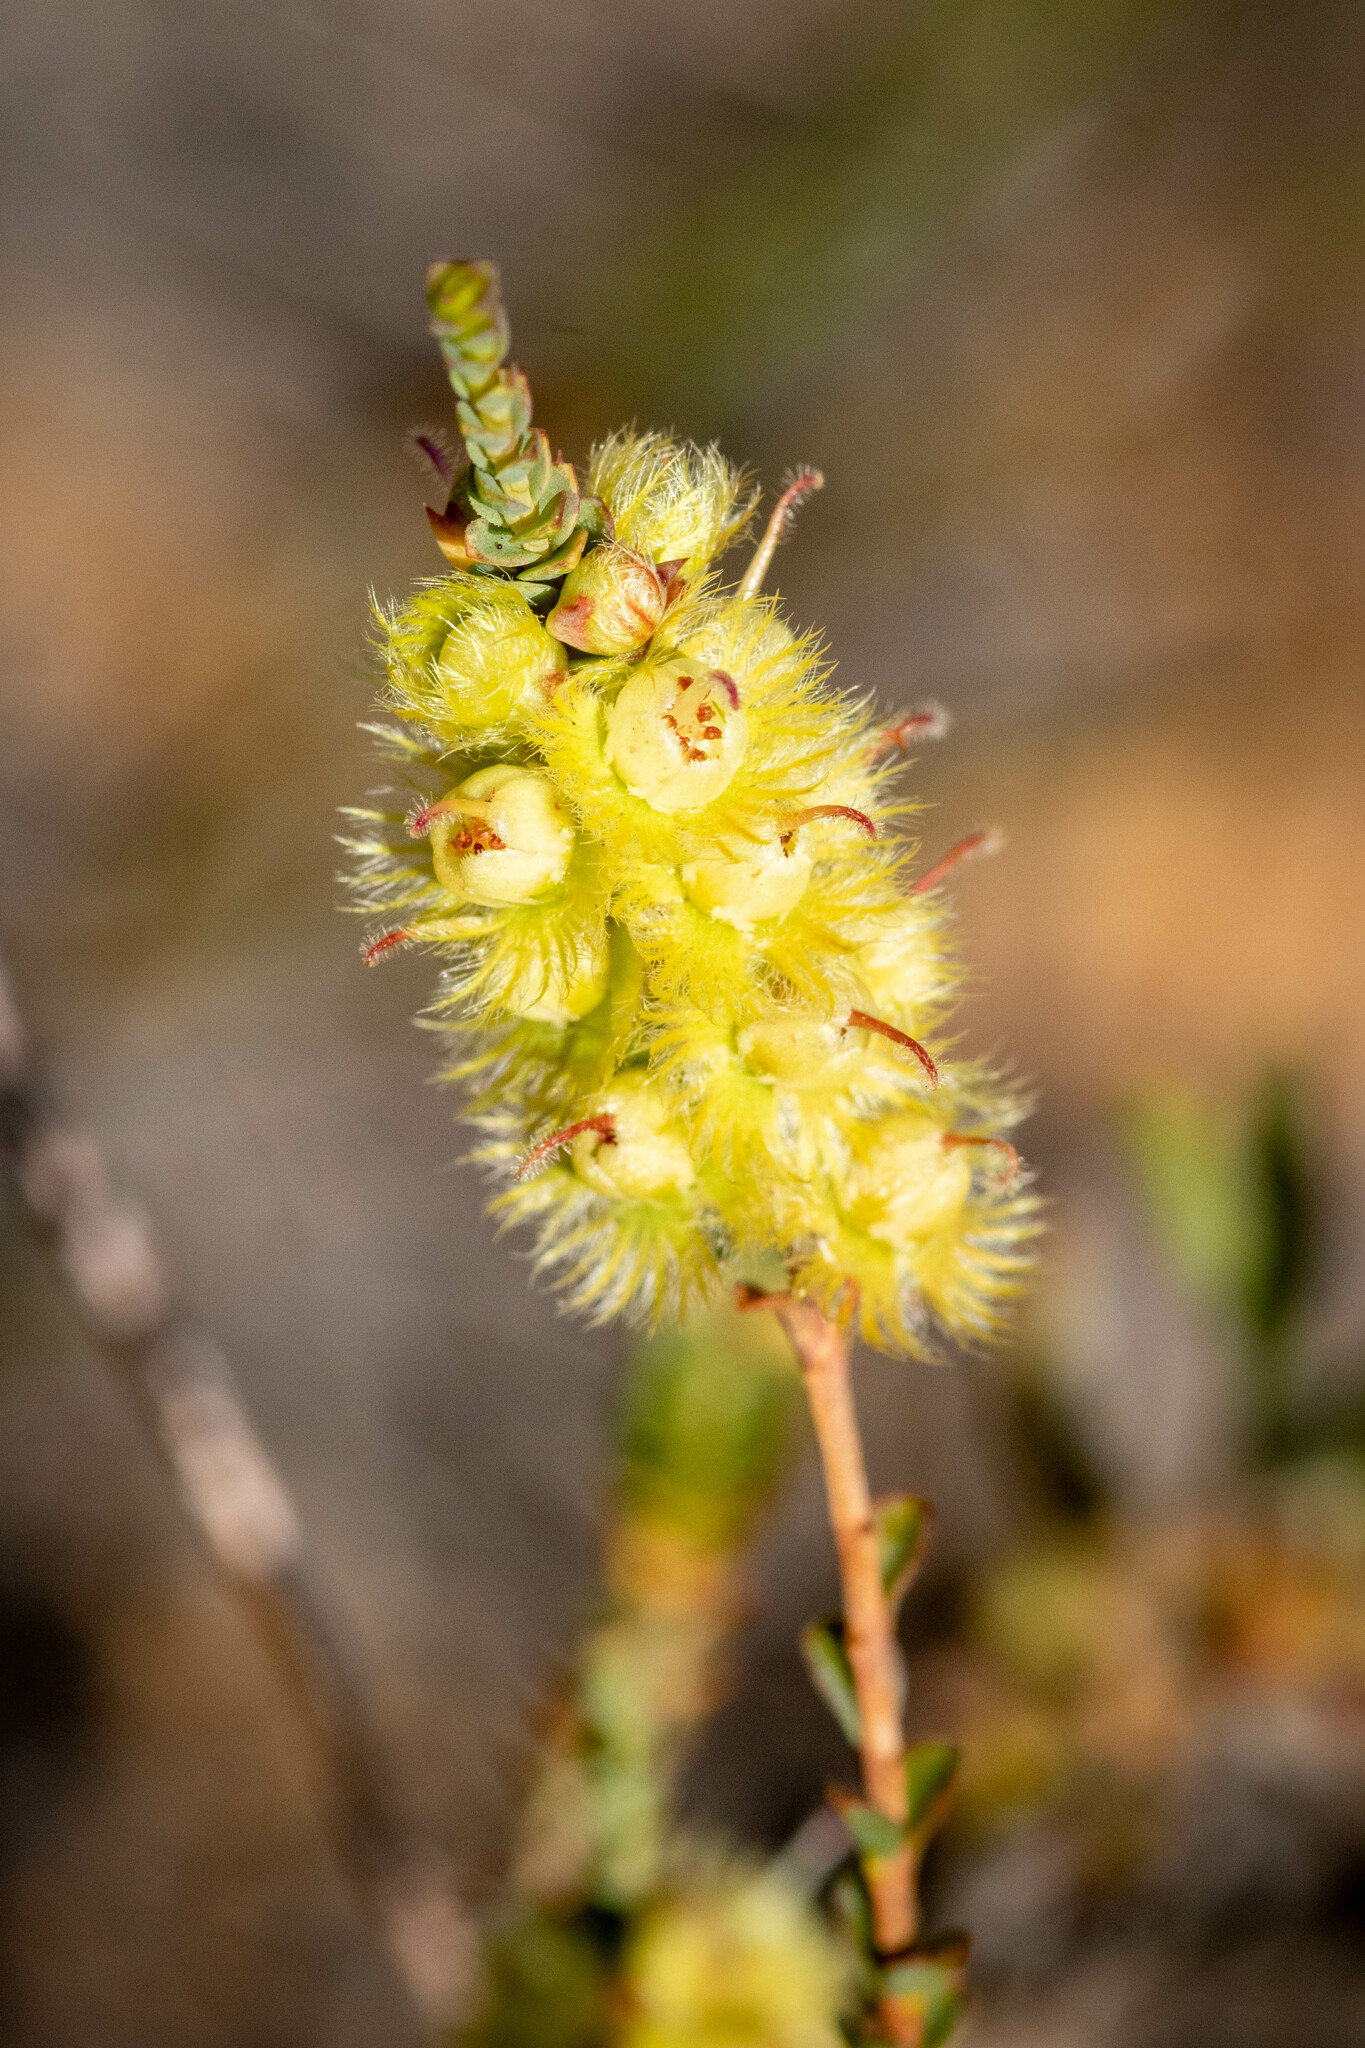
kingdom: Plantae
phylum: Tracheophyta
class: Magnoliopsida
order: Myrtales
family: Myrtaceae
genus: Verticordia
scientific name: Verticordia lepidophylla
